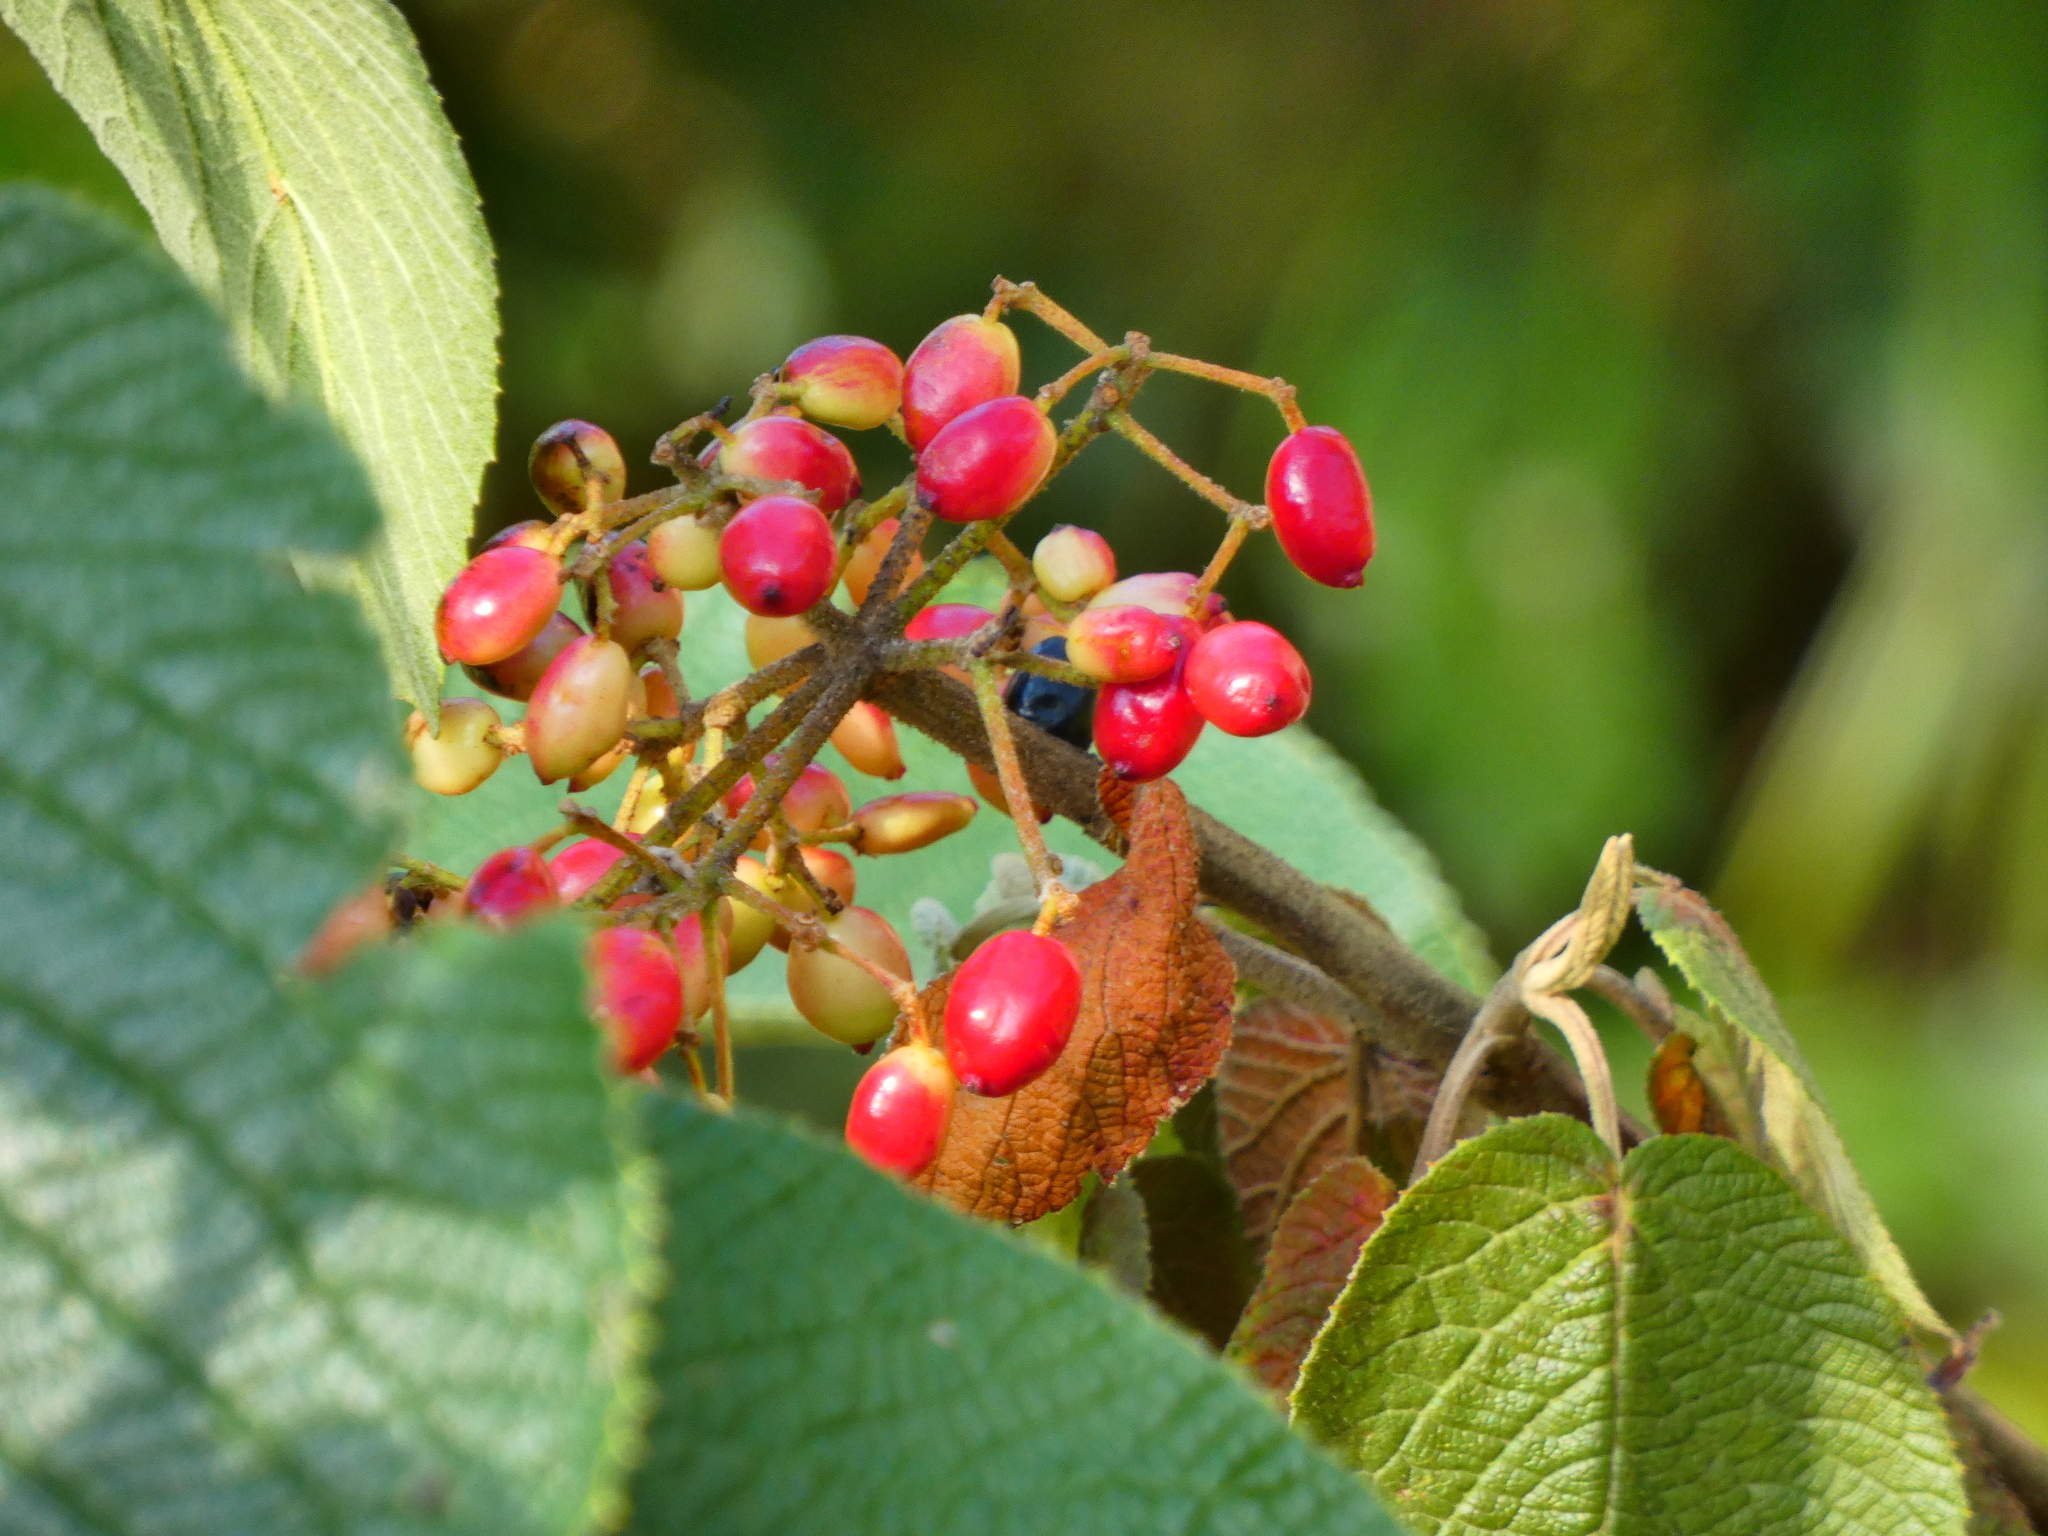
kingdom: Plantae
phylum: Tracheophyta
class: Magnoliopsida
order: Dipsacales
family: Viburnaceae
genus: Viburnum
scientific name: Viburnum lantana
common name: Wayfaring tree
